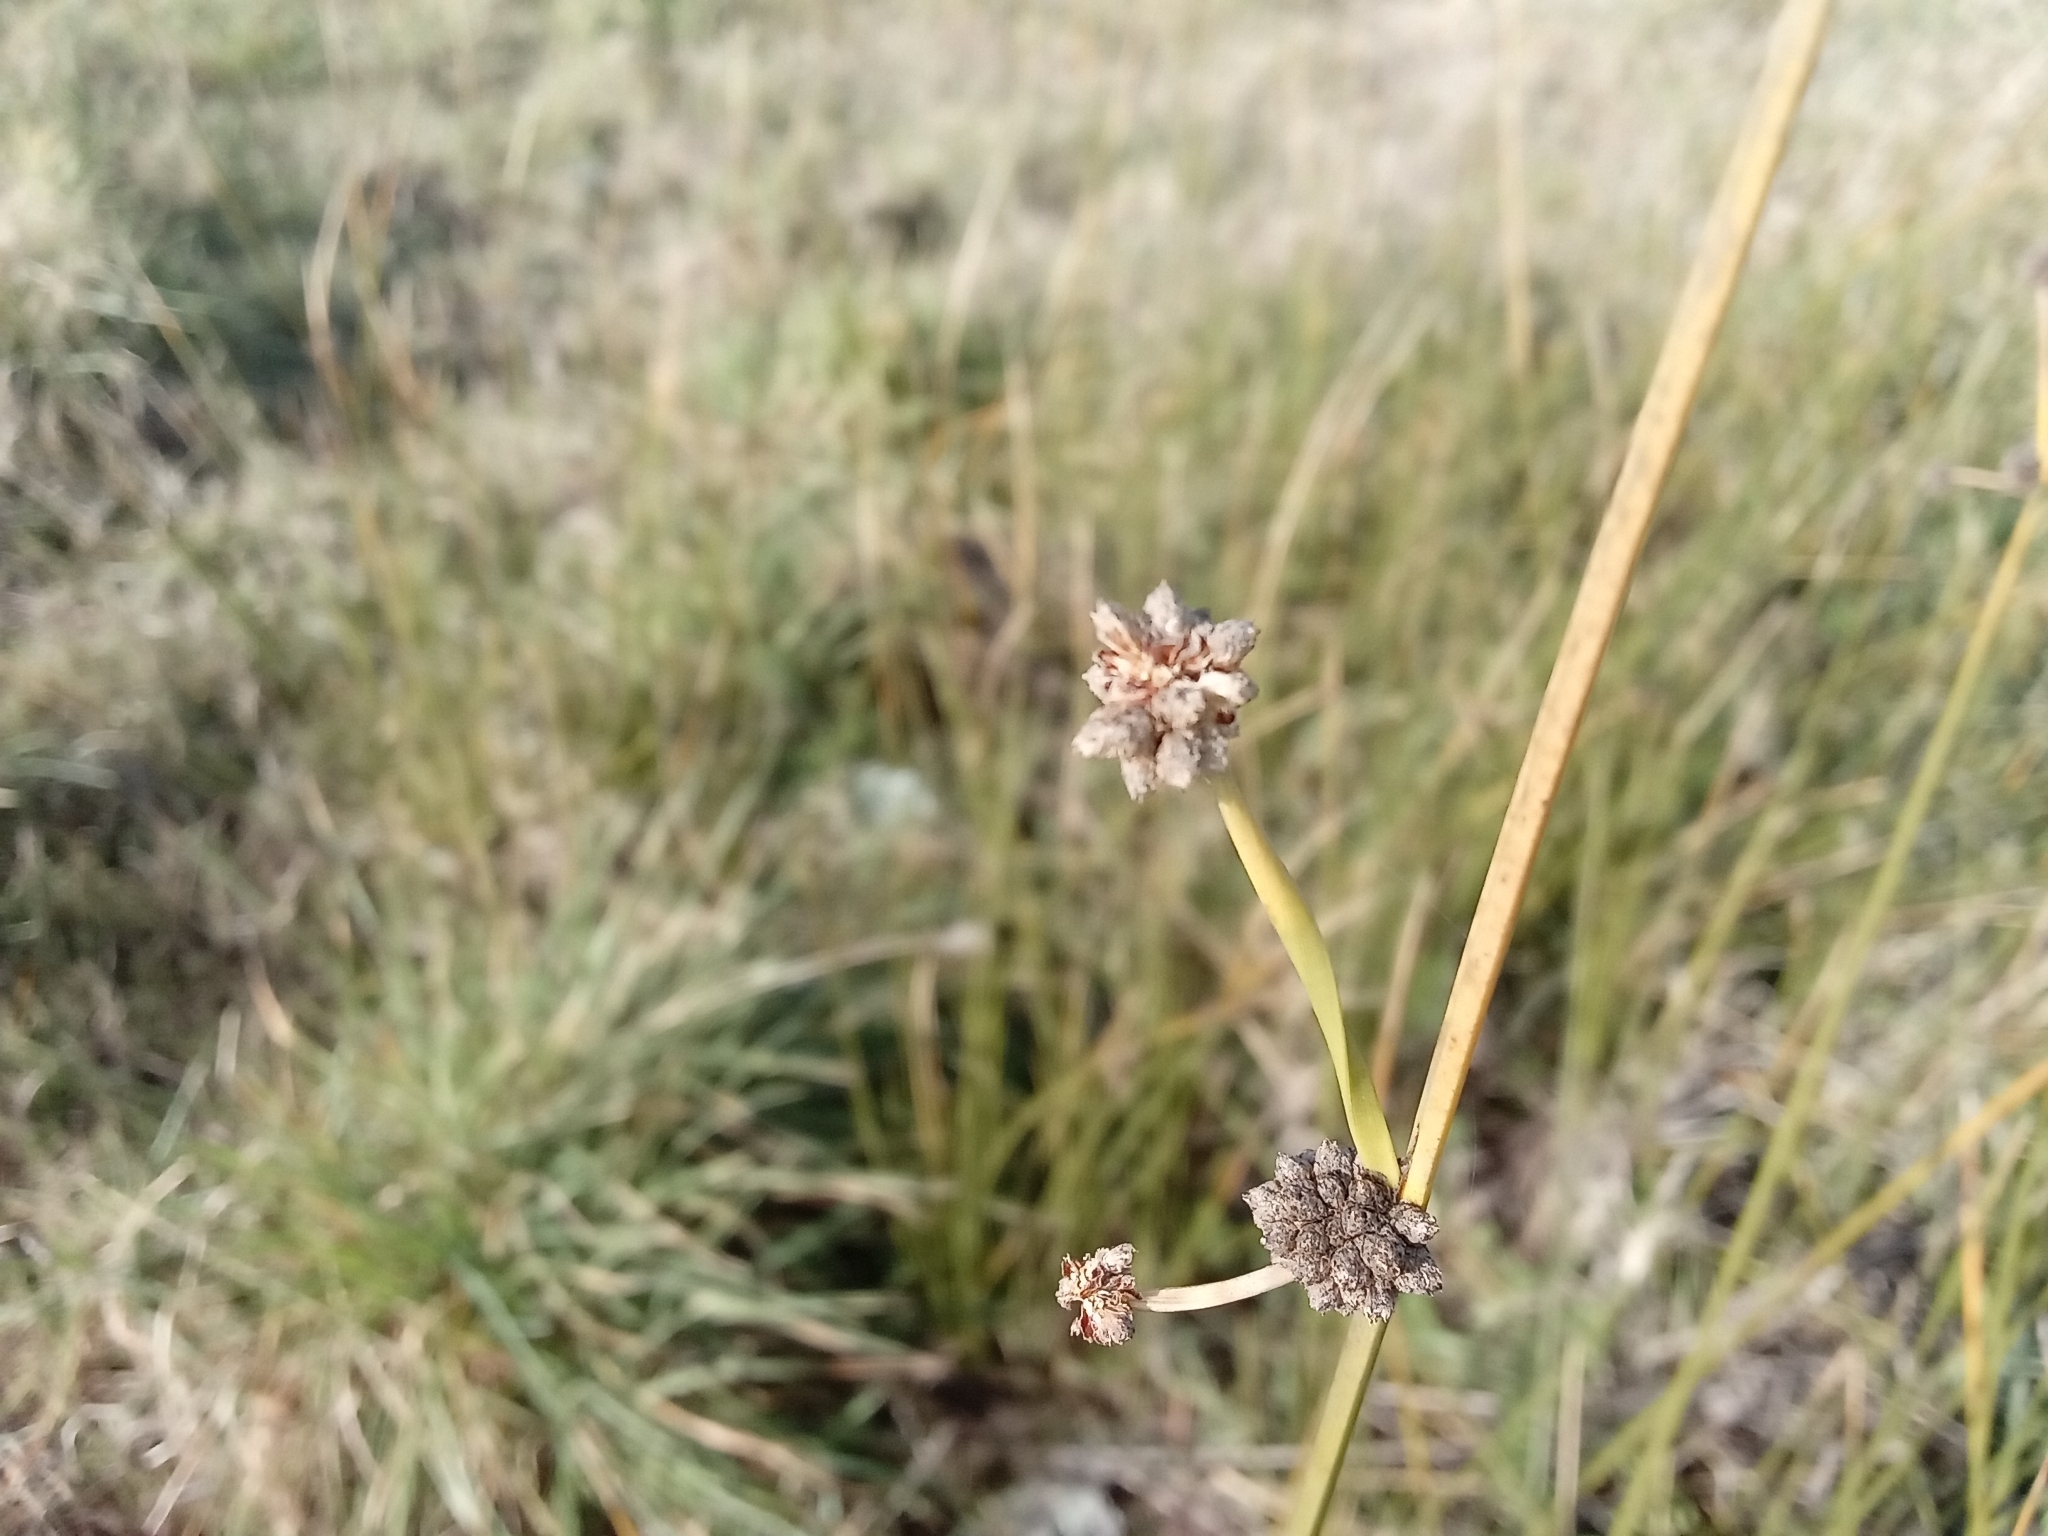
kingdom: Plantae
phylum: Tracheophyta
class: Liliopsida
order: Poales
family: Cyperaceae
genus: Scirpoides
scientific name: Scirpoides holoschoenus
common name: Round-headed club-rush
